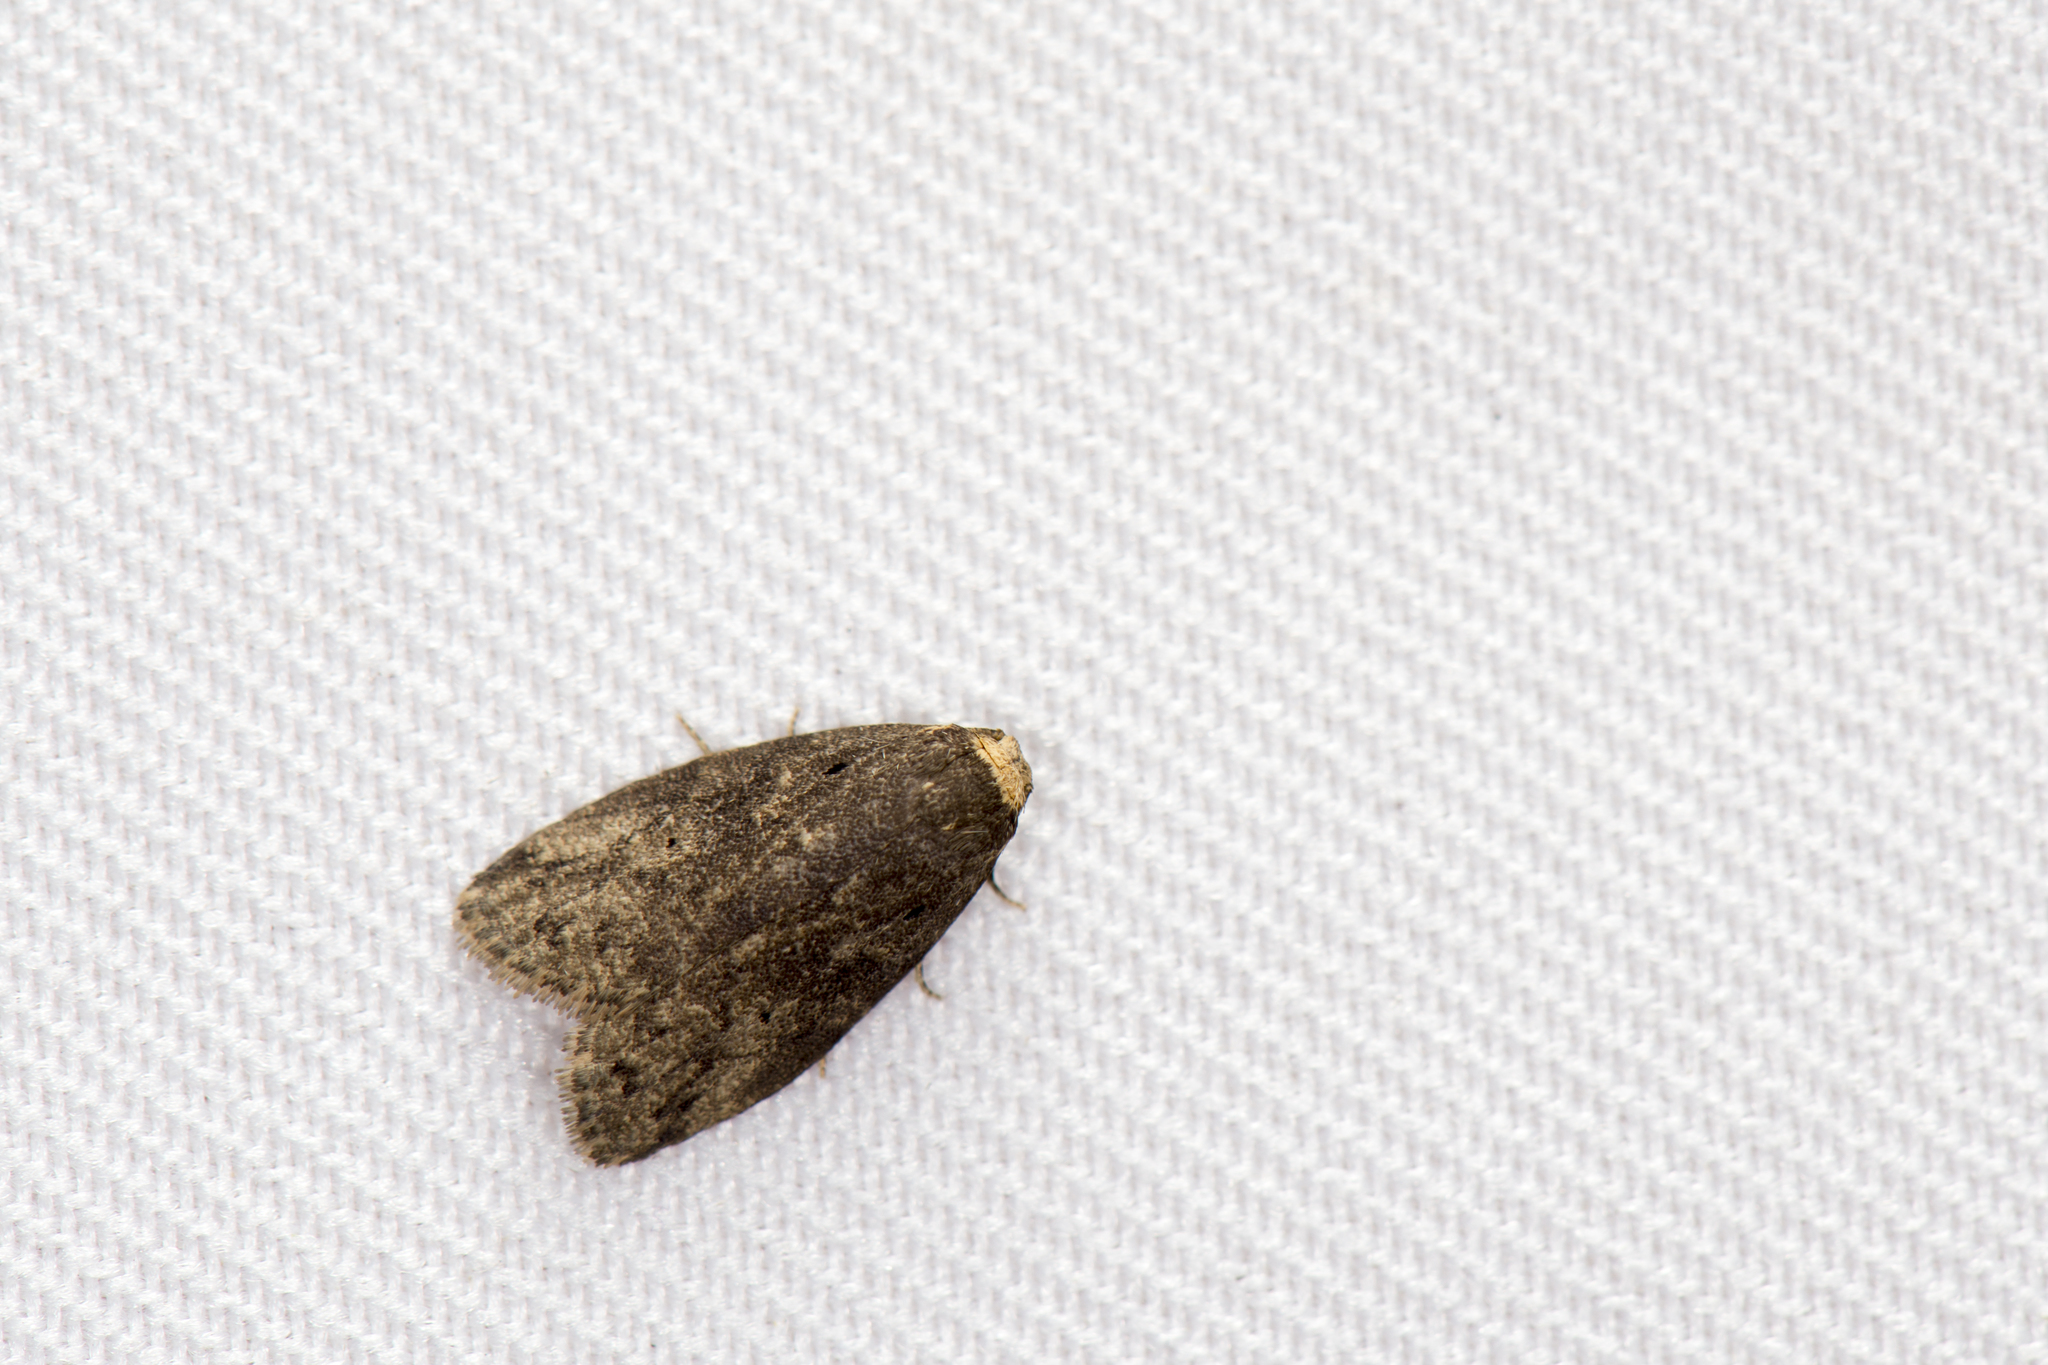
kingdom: Animalia
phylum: Arthropoda
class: Insecta
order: Lepidoptera
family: Erebidae
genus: Eugoa
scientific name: Eugoa brunnea
